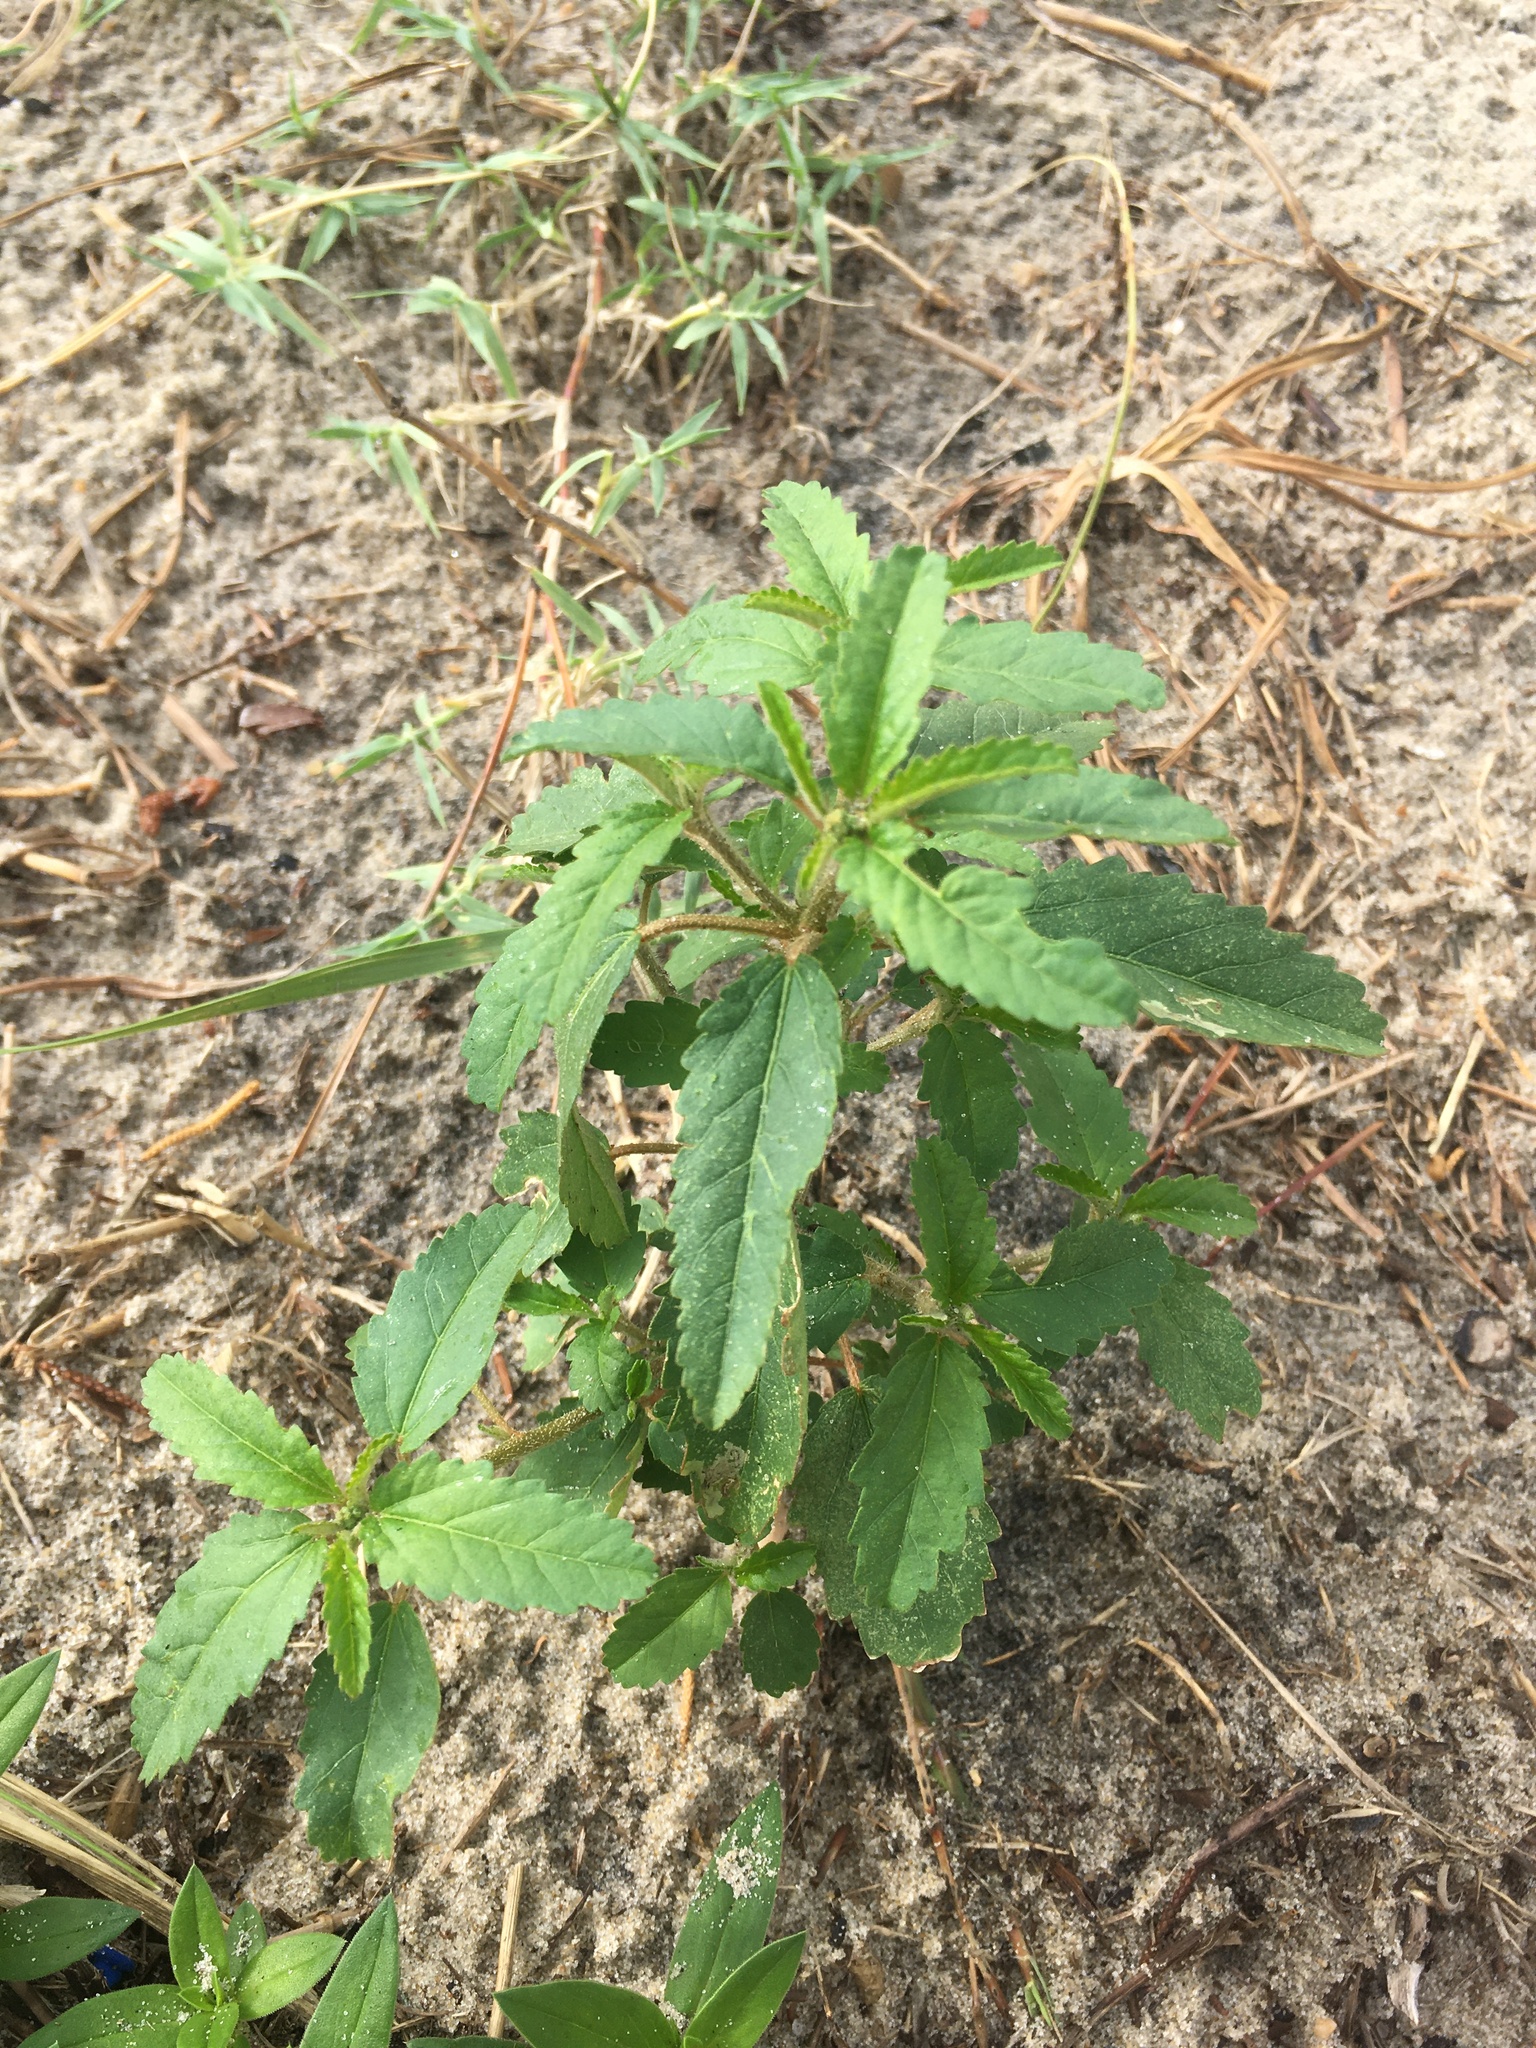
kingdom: Plantae
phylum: Tracheophyta
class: Magnoliopsida
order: Malpighiales
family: Euphorbiaceae
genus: Croton
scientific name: Croton glandulosus
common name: Tropic croton
